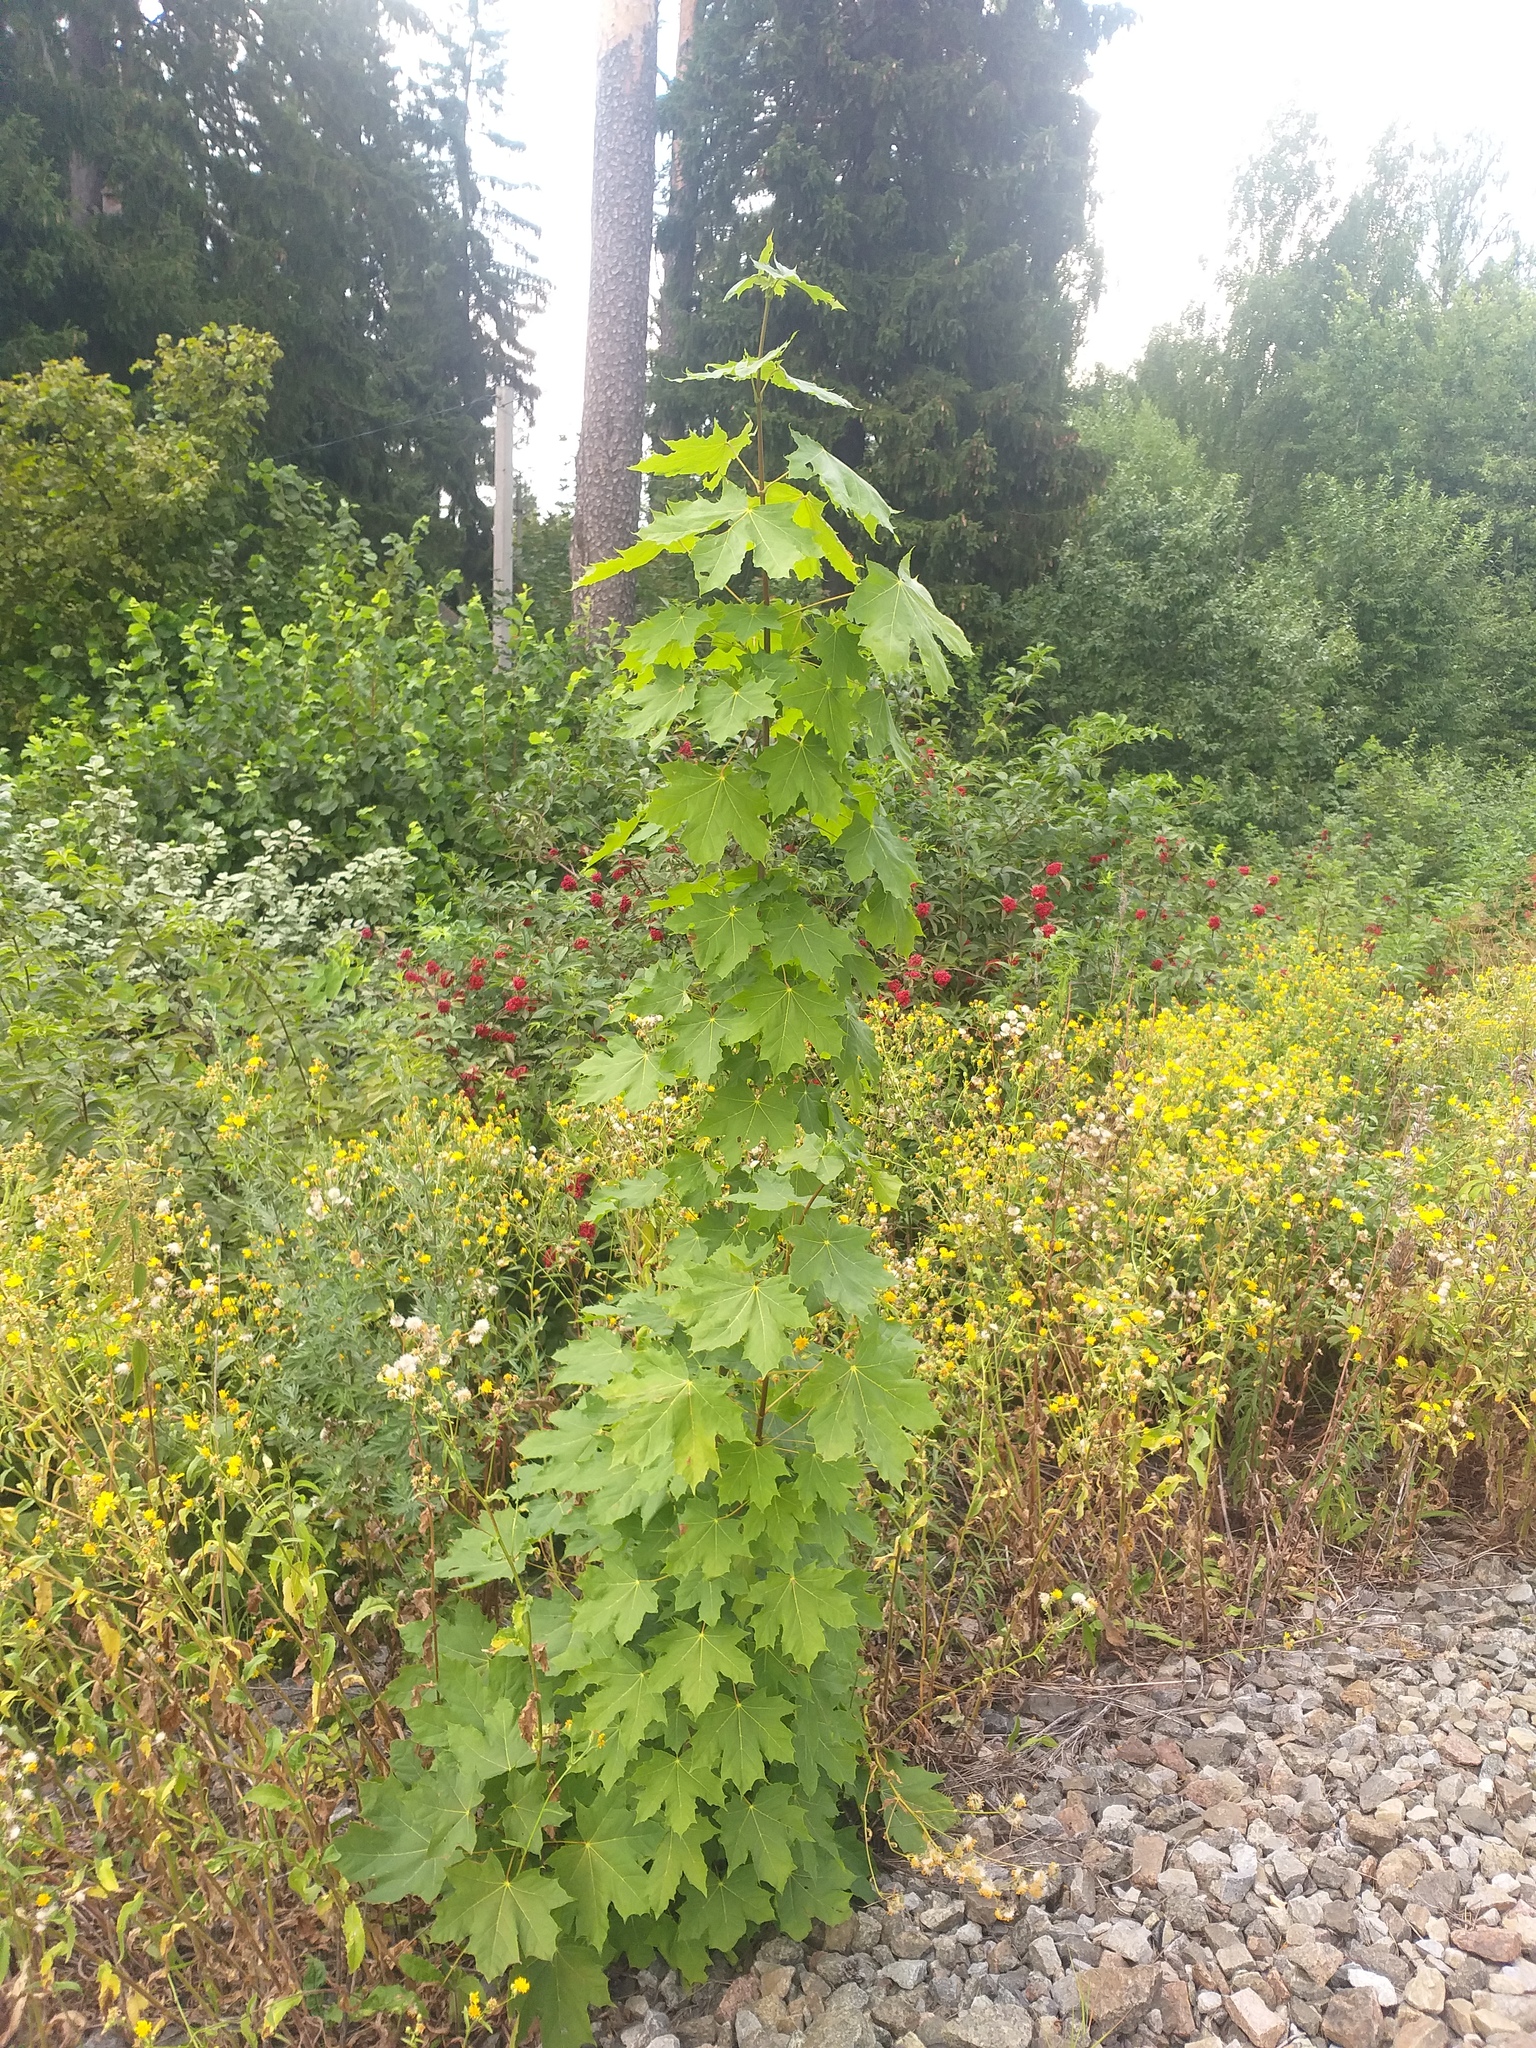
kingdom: Plantae
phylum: Tracheophyta
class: Magnoliopsida
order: Sapindales
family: Sapindaceae
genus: Acer
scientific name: Acer platanoides
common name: Norway maple
